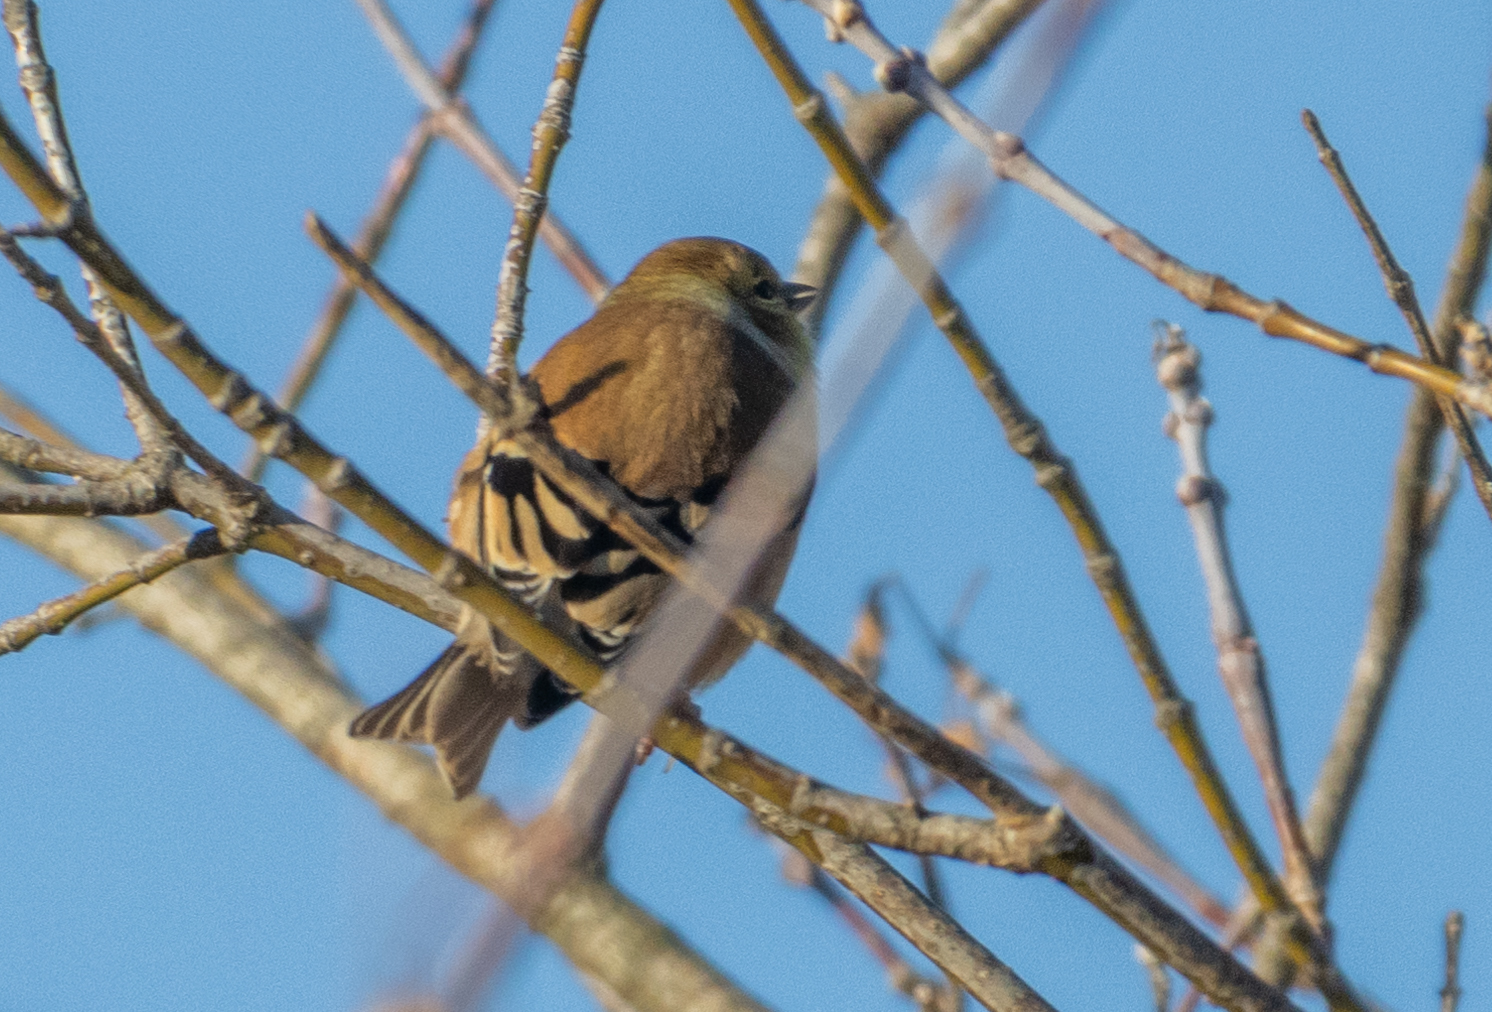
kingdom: Animalia
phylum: Chordata
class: Aves
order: Passeriformes
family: Fringillidae
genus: Spinus
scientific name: Spinus tristis
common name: American goldfinch
